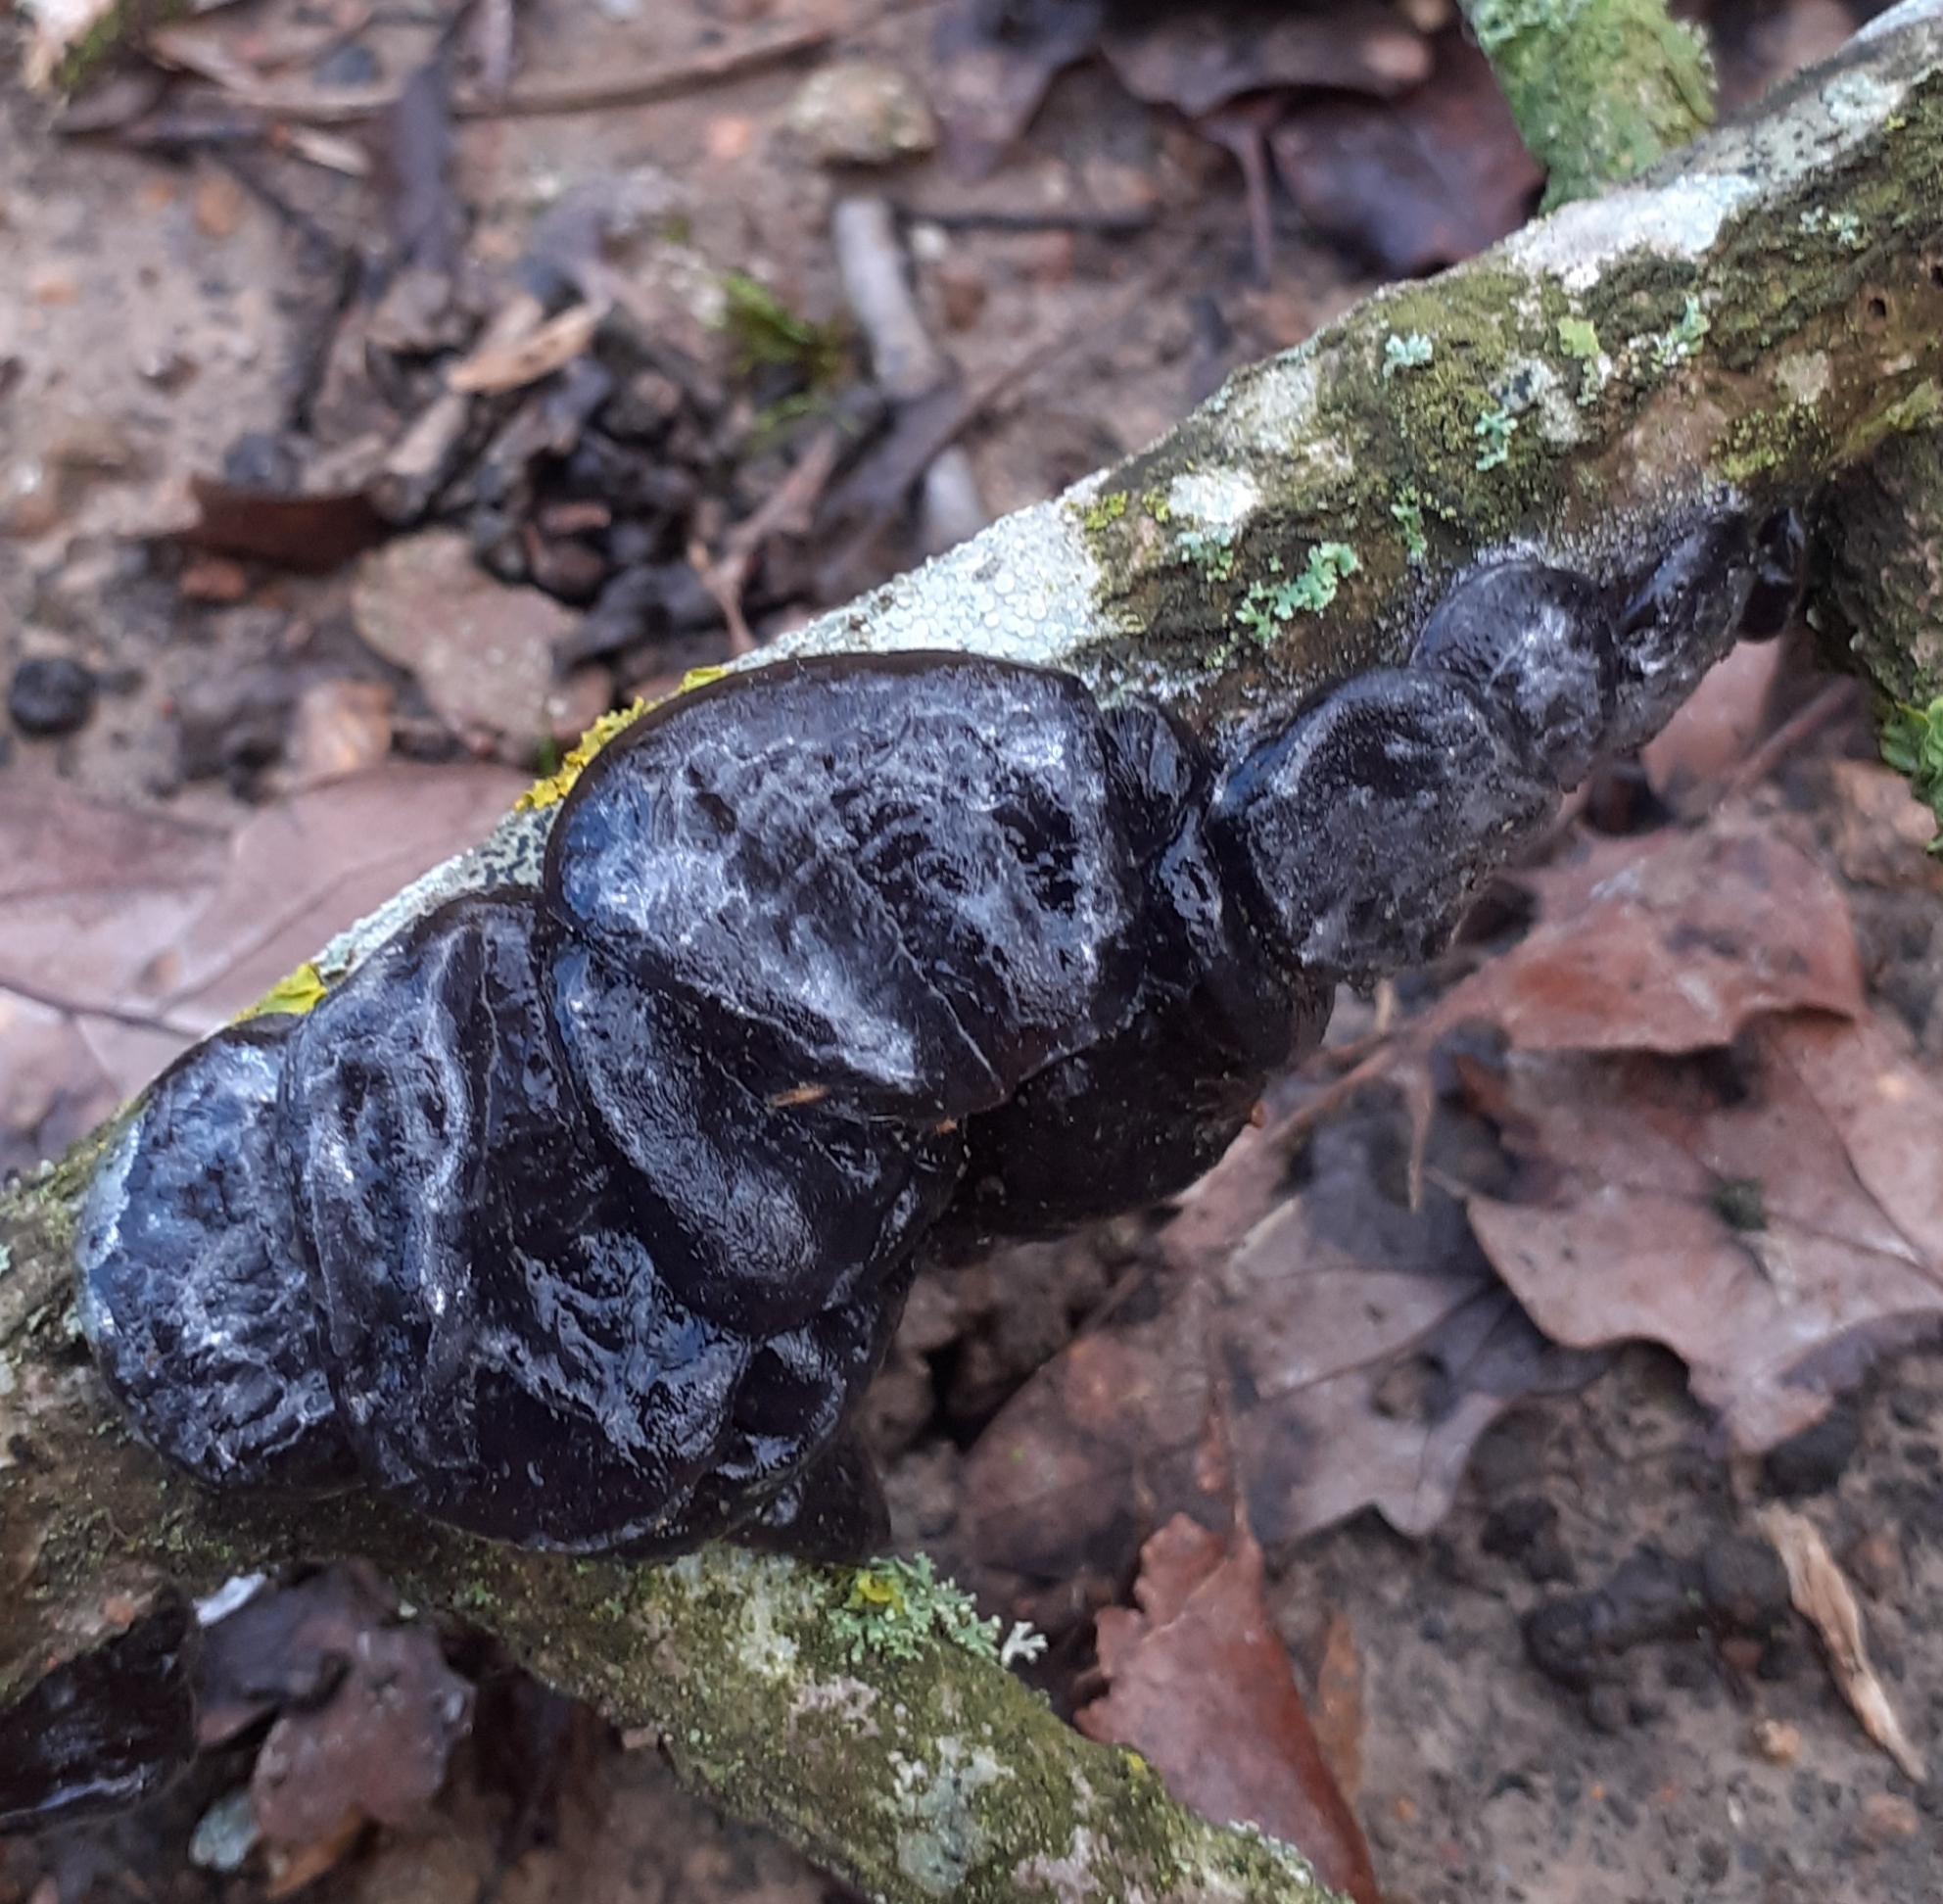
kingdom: Fungi
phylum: Basidiomycota
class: Agaricomycetes
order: Auriculariales
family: Auriculariaceae
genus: Exidia
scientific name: Exidia glandulosa
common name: Witches' butter
